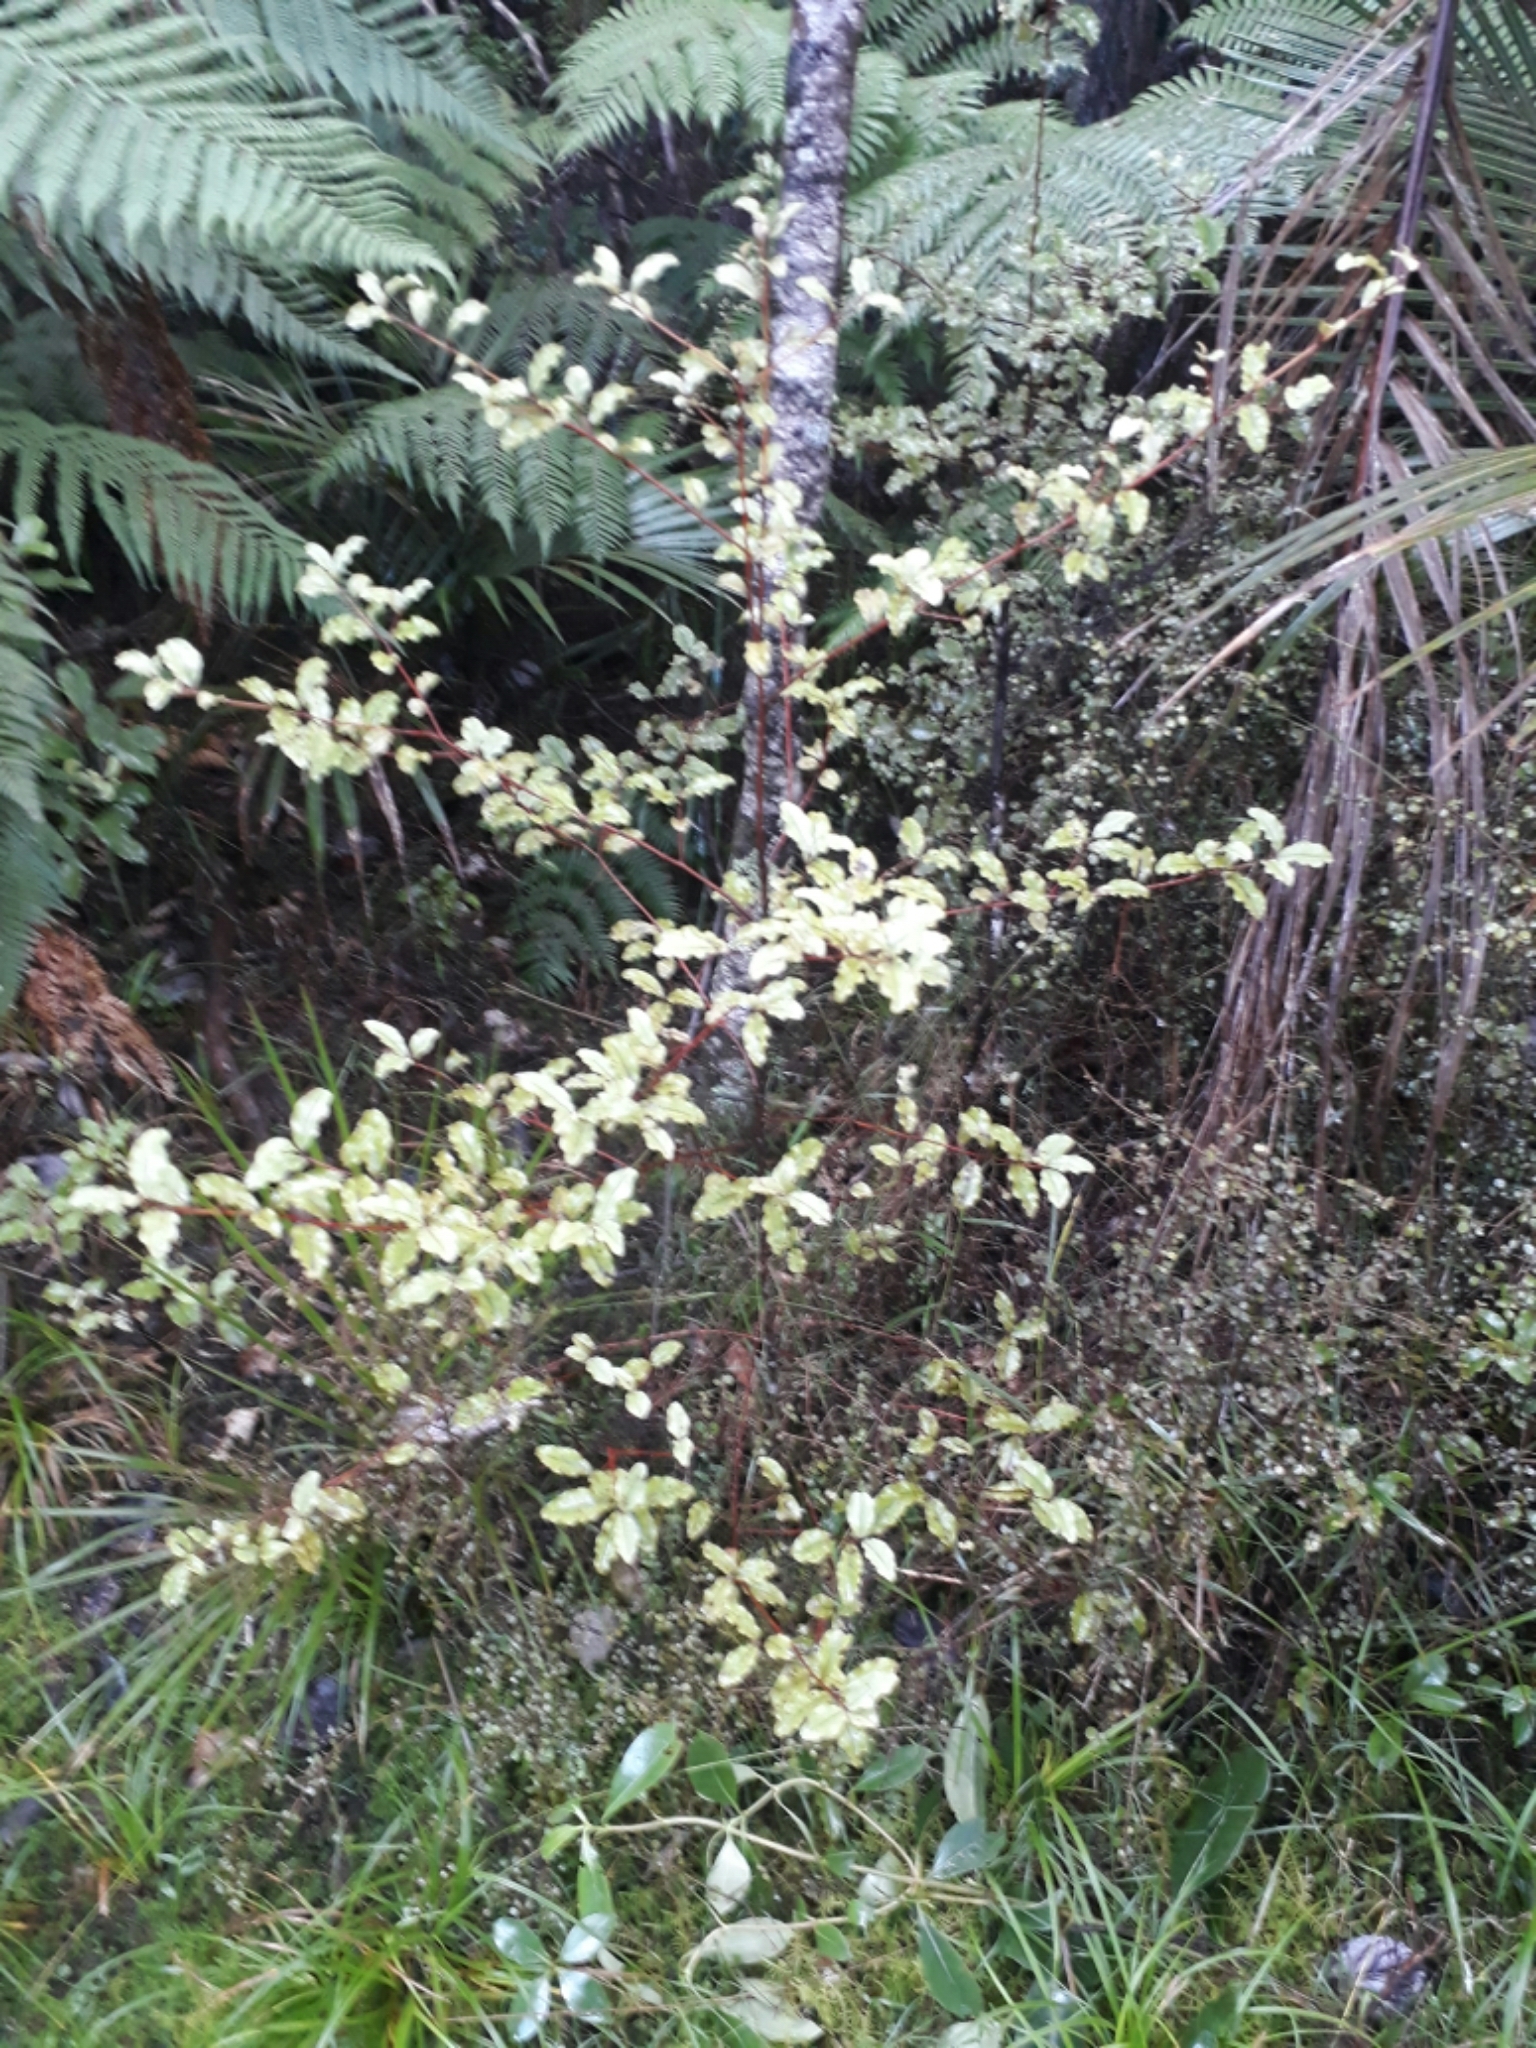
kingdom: Plantae
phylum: Tracheophyta
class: Magnoliopsida
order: Ericales
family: Primulaceae
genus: Myrsine
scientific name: Myrsine australis
